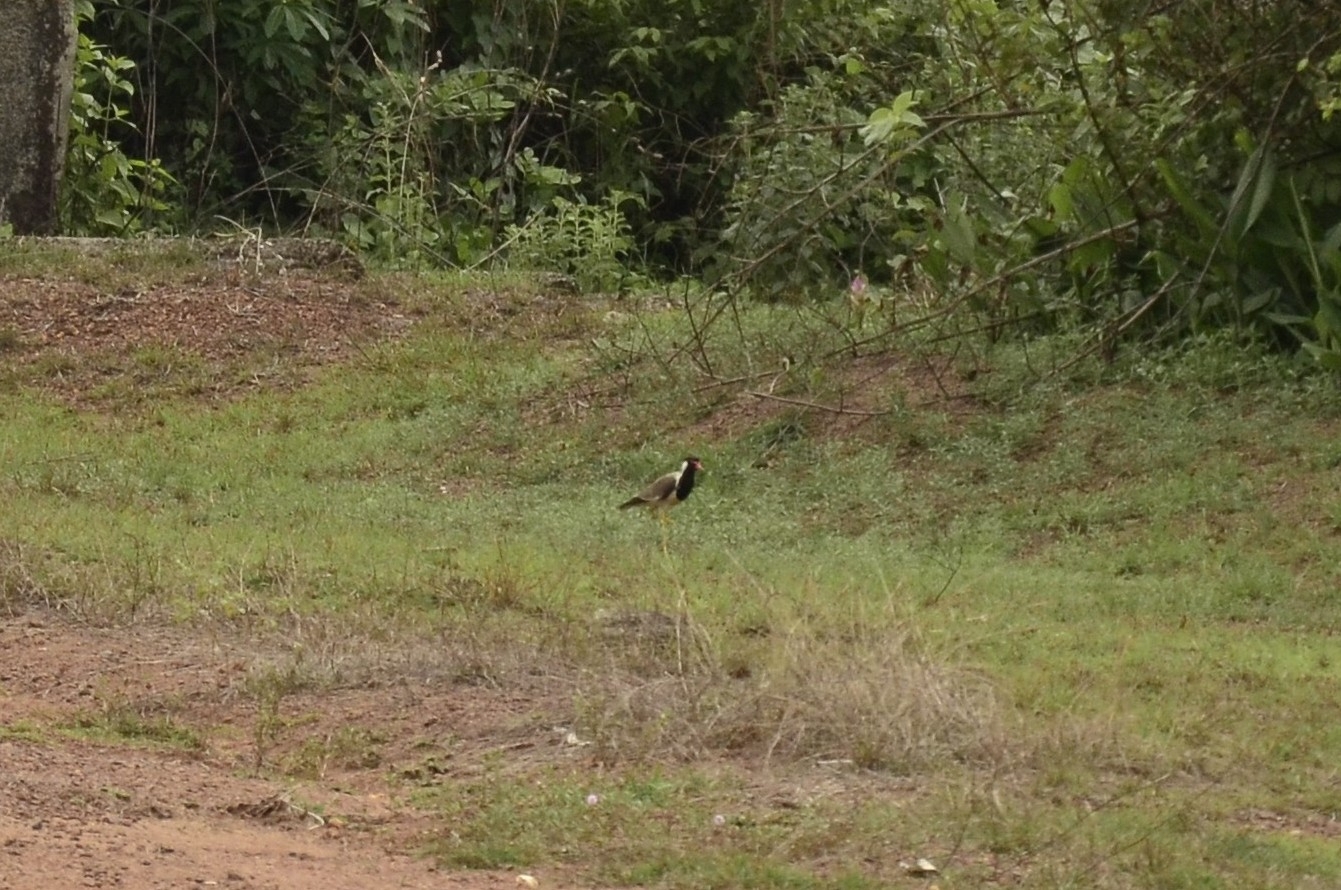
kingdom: Animalia
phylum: Chordata
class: Aves
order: Charadriiformes
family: Charadriidae
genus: Vanellus
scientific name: Vanellus indicus
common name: Red-wattled lapwing
